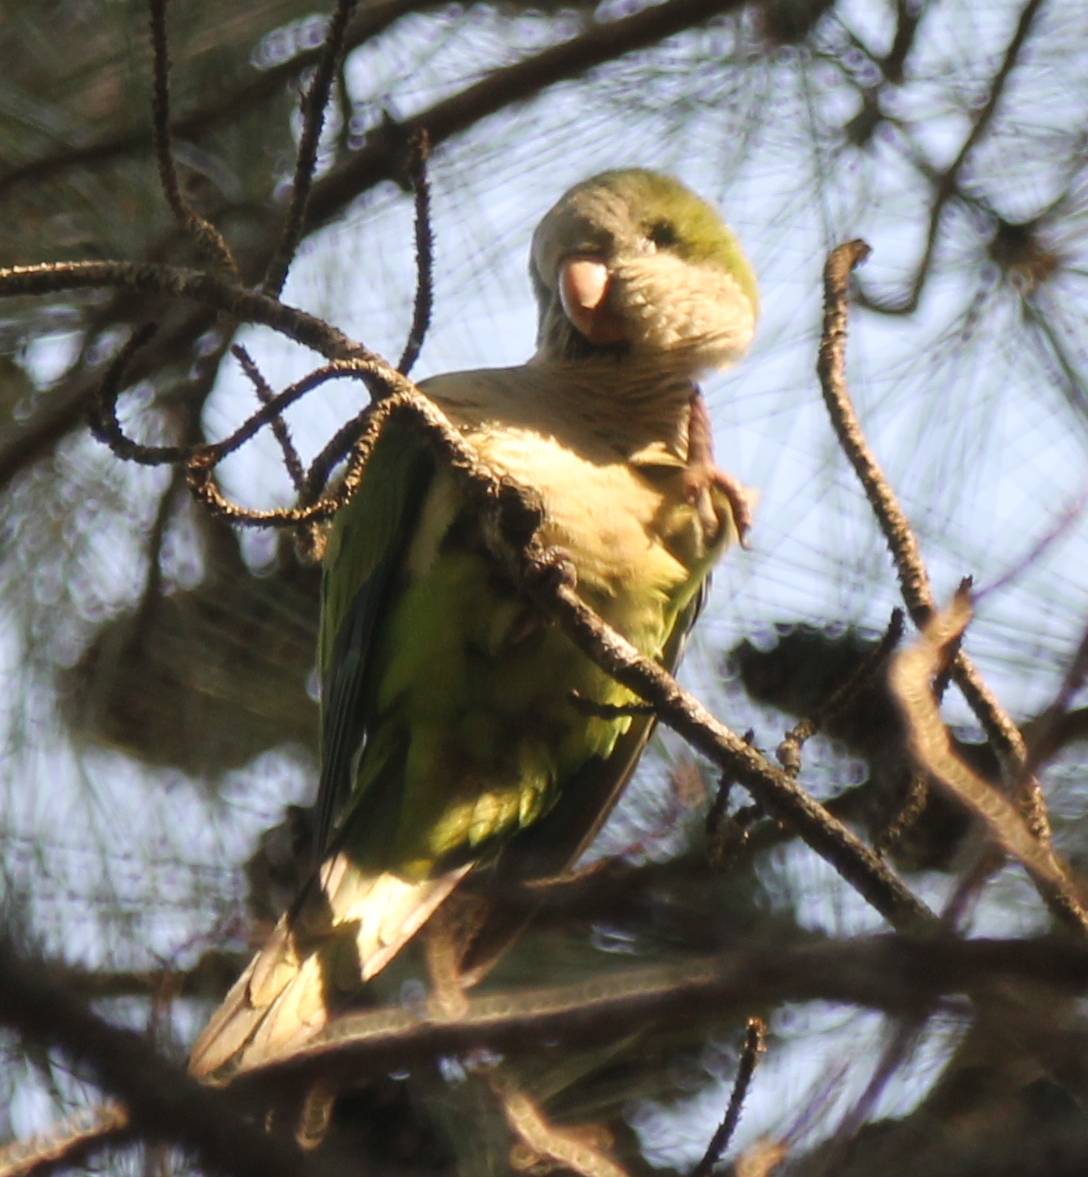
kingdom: Animalia
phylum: Chordata
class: Aves
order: Psittaciformes
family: Psittacidae
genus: Myiopsitta
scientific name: Myiopsitta monachus
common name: Monk parakeet
